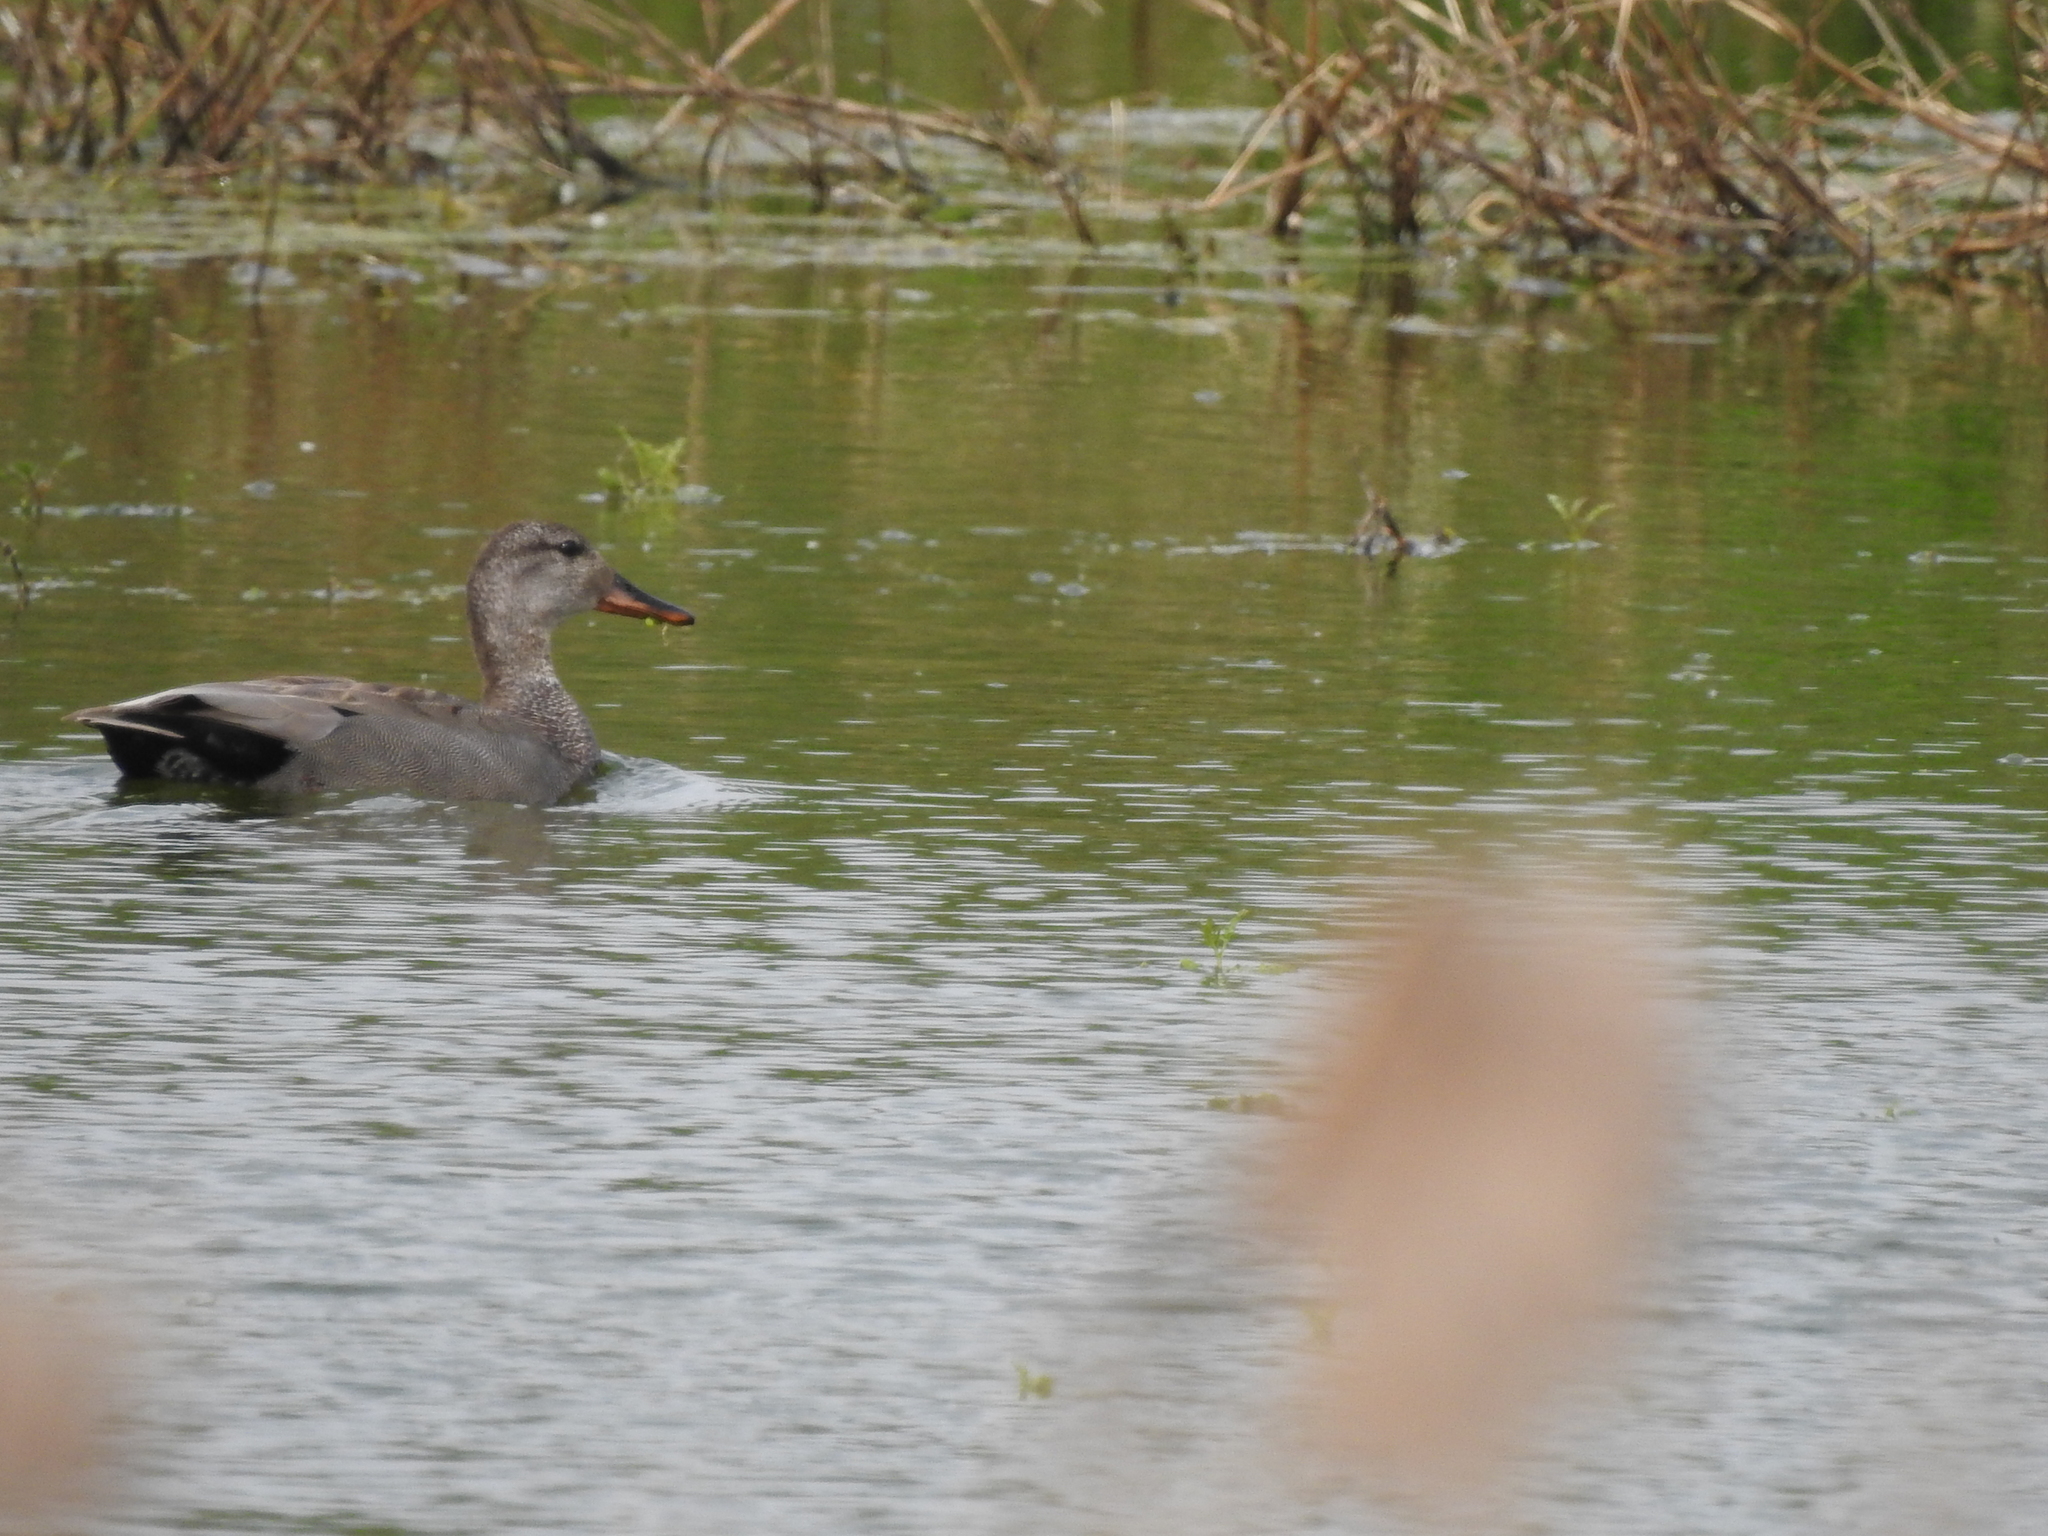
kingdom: Animalia
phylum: Chordata
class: Aves
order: Anseriformes
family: Anatidae
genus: Mareca
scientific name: Mareca strepera
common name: Gadwall
